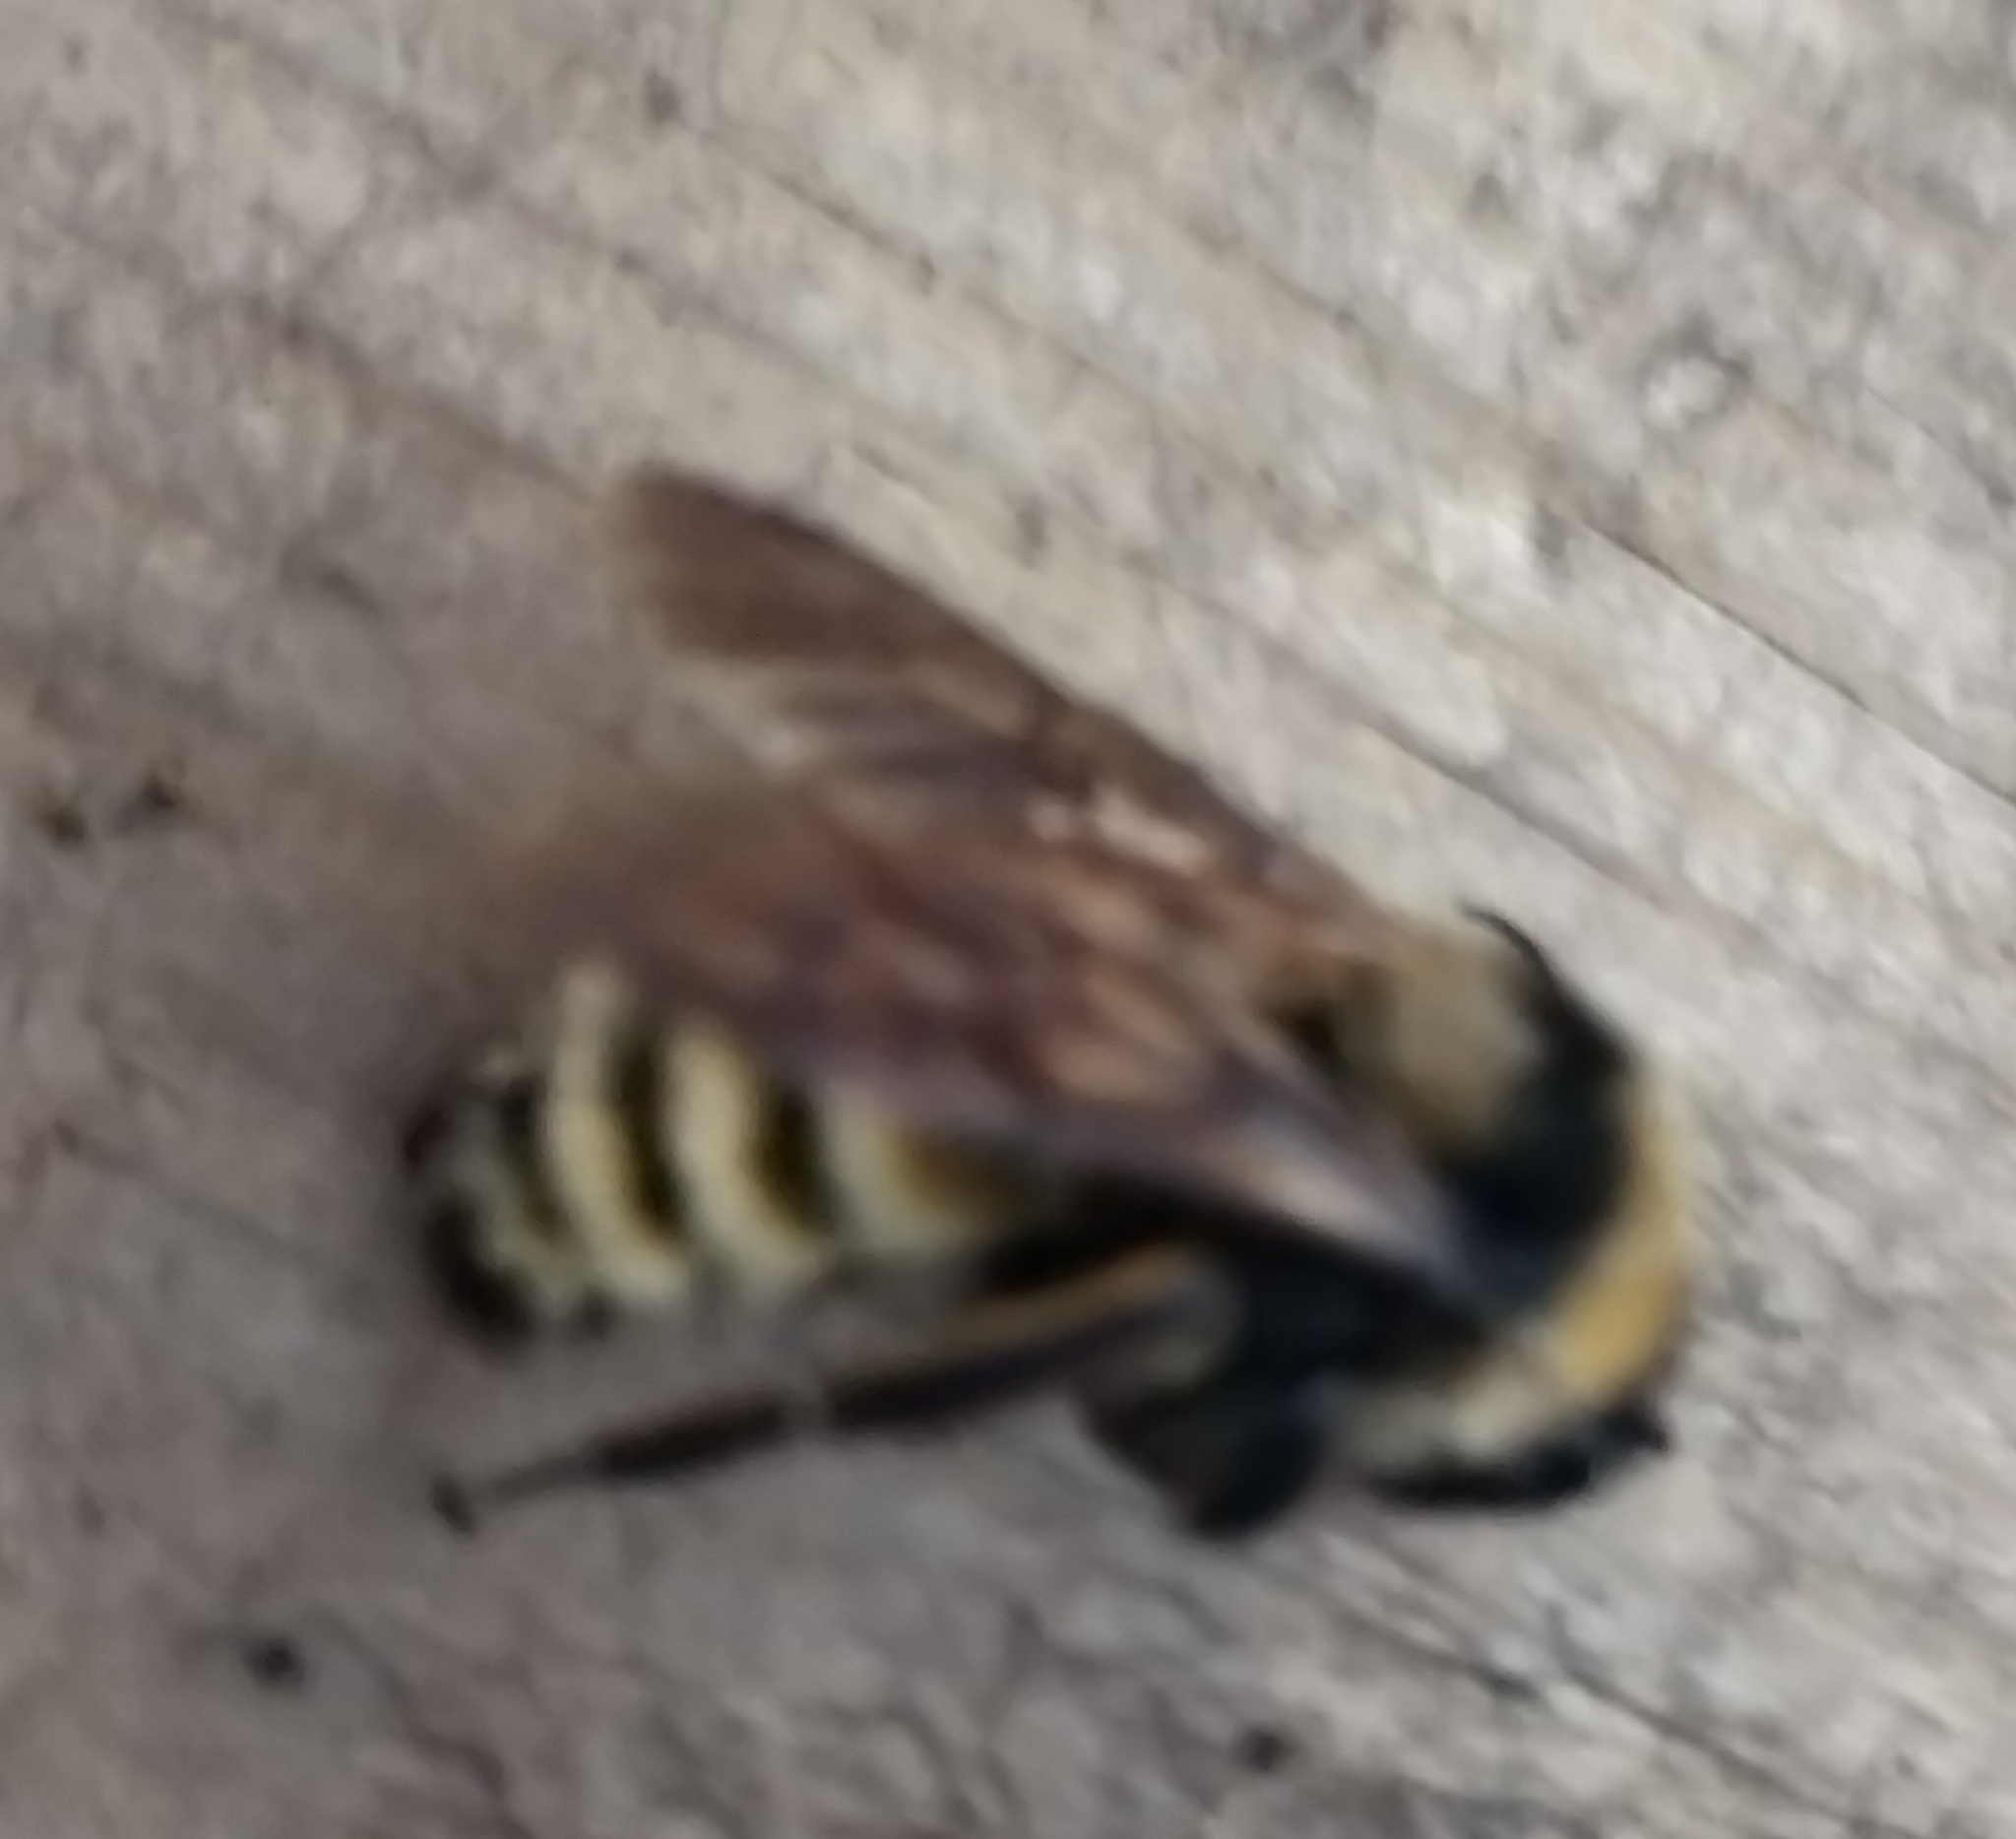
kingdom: Animalia
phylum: Arthropoda
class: Insecta
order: Hymenoptera
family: Apidae
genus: Bombus
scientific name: Bombus pensylvanicus
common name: Bumble bee
